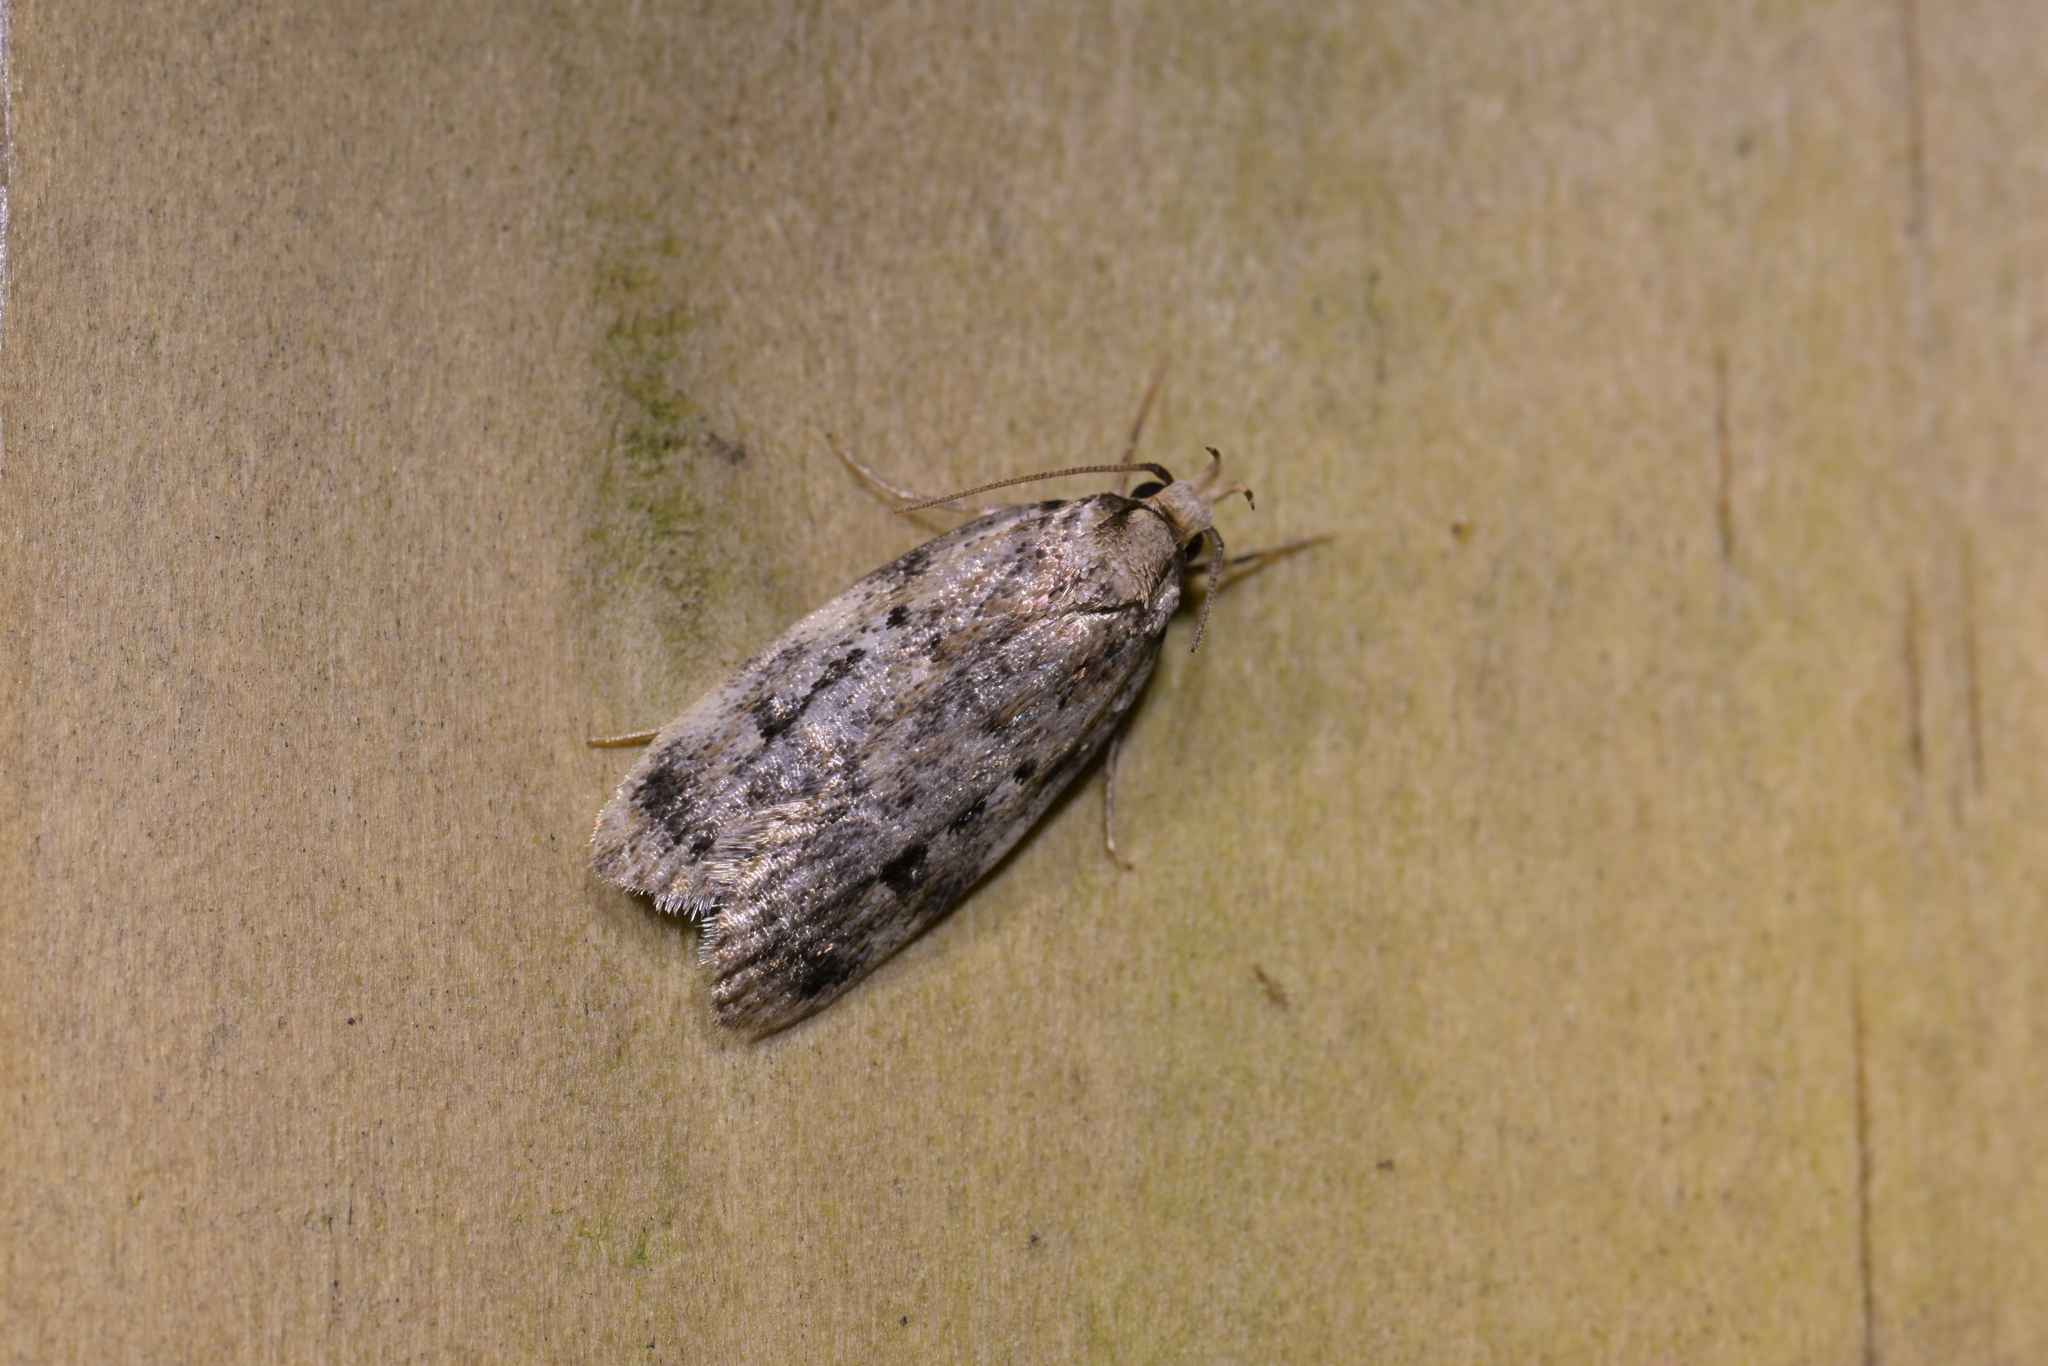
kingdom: Animalia
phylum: Arthropoda
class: Insecta
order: Lepidoptera
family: Oecophoridae
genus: Barea
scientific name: Barea exarcha
